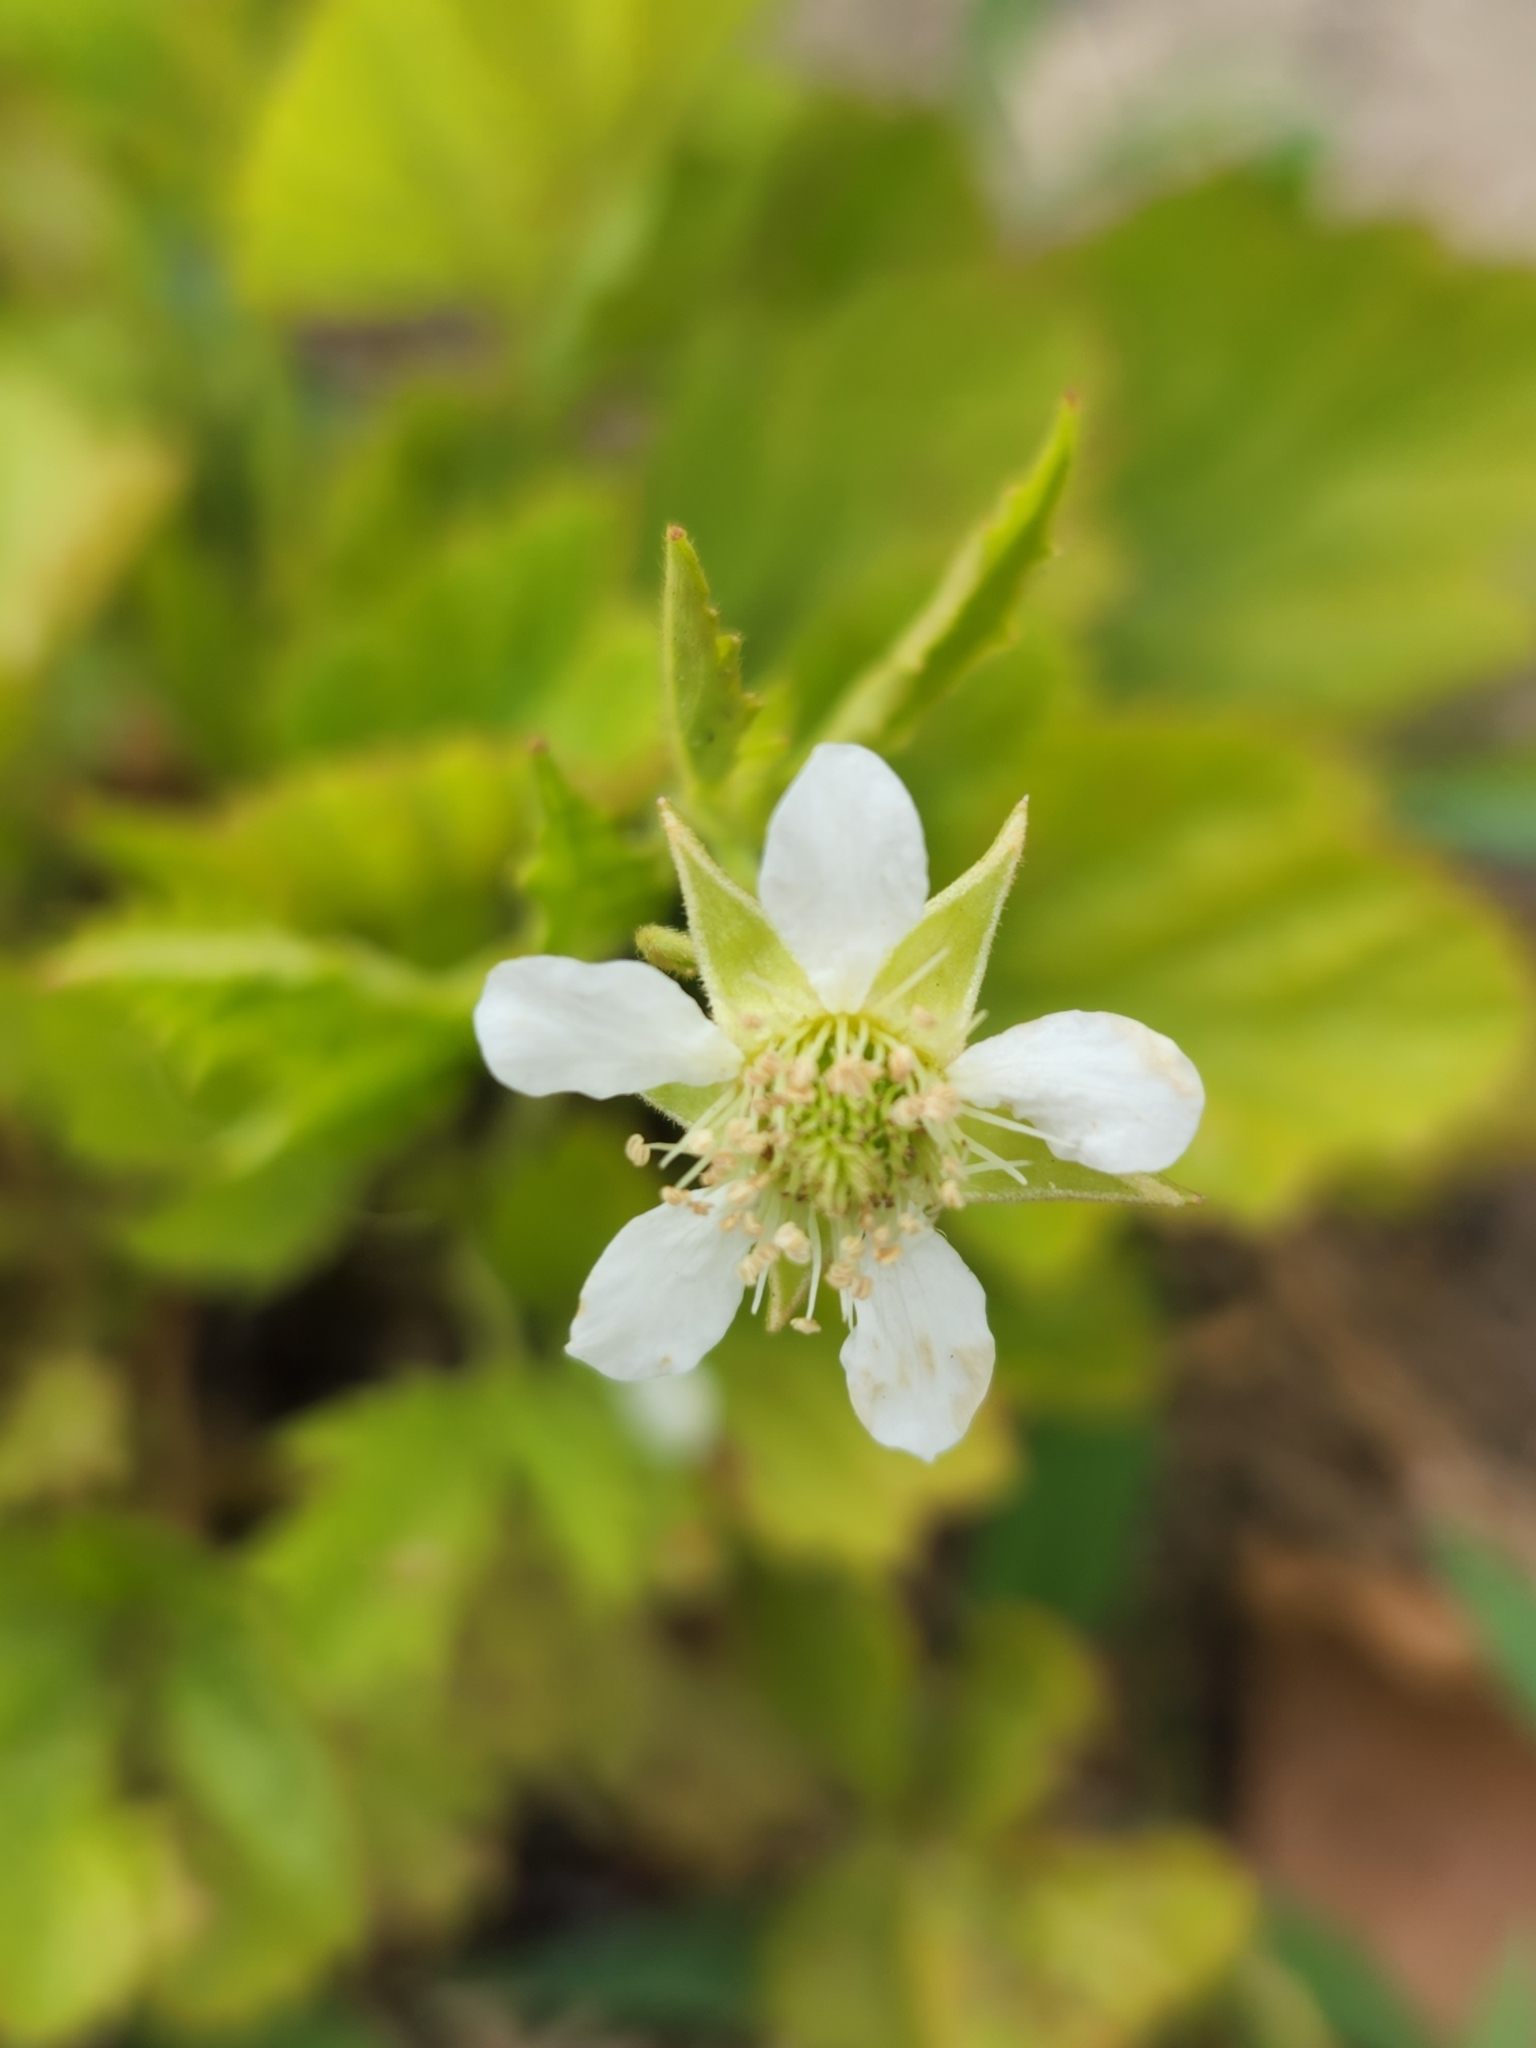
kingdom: Plantae
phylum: Tracheophyta
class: Magnoliopsida
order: Rosales
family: Rosaceae
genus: Geum
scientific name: Geum canadense
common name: White avens
